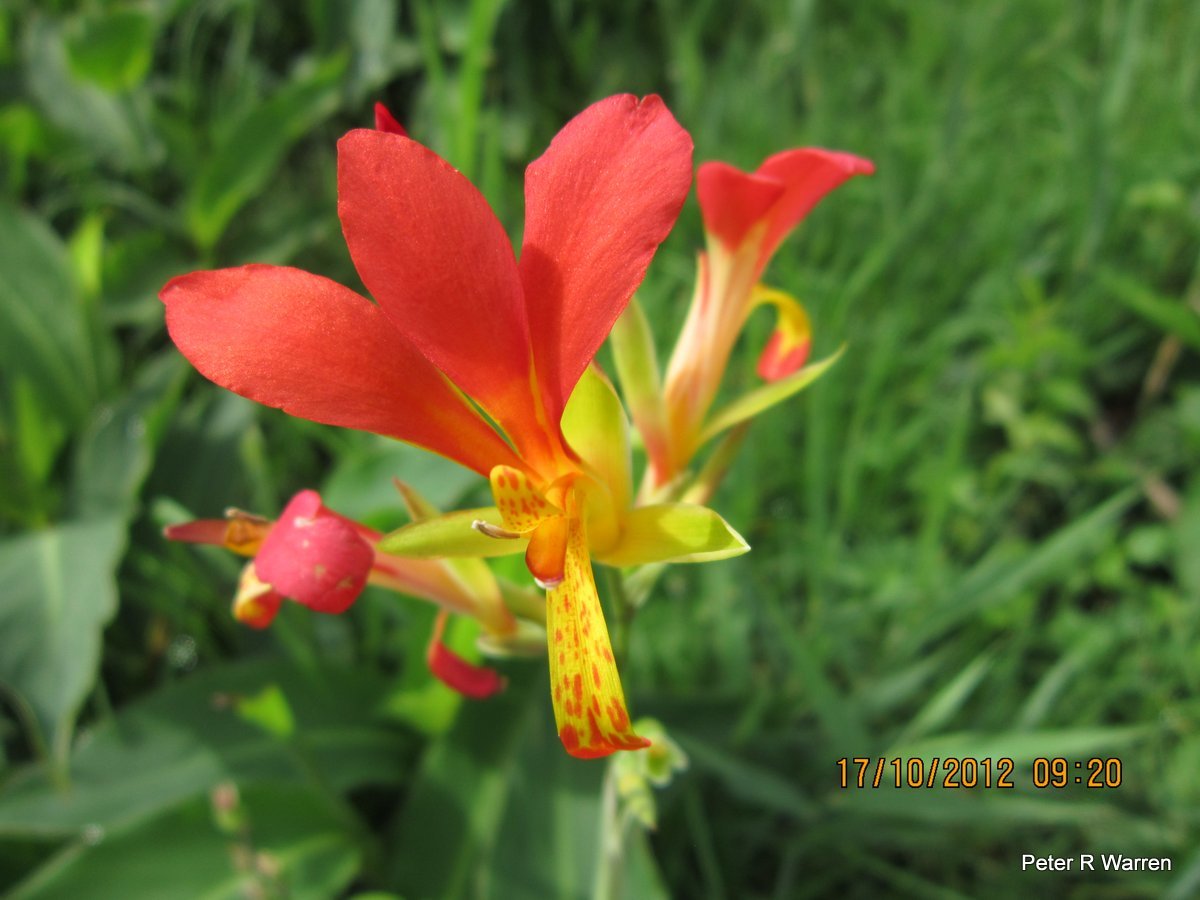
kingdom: Plantae
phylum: Tracheophyta
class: Liliopsida
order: Zingiberales
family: Cannaceae
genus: Canna
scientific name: Canna indica
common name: Indian shot
